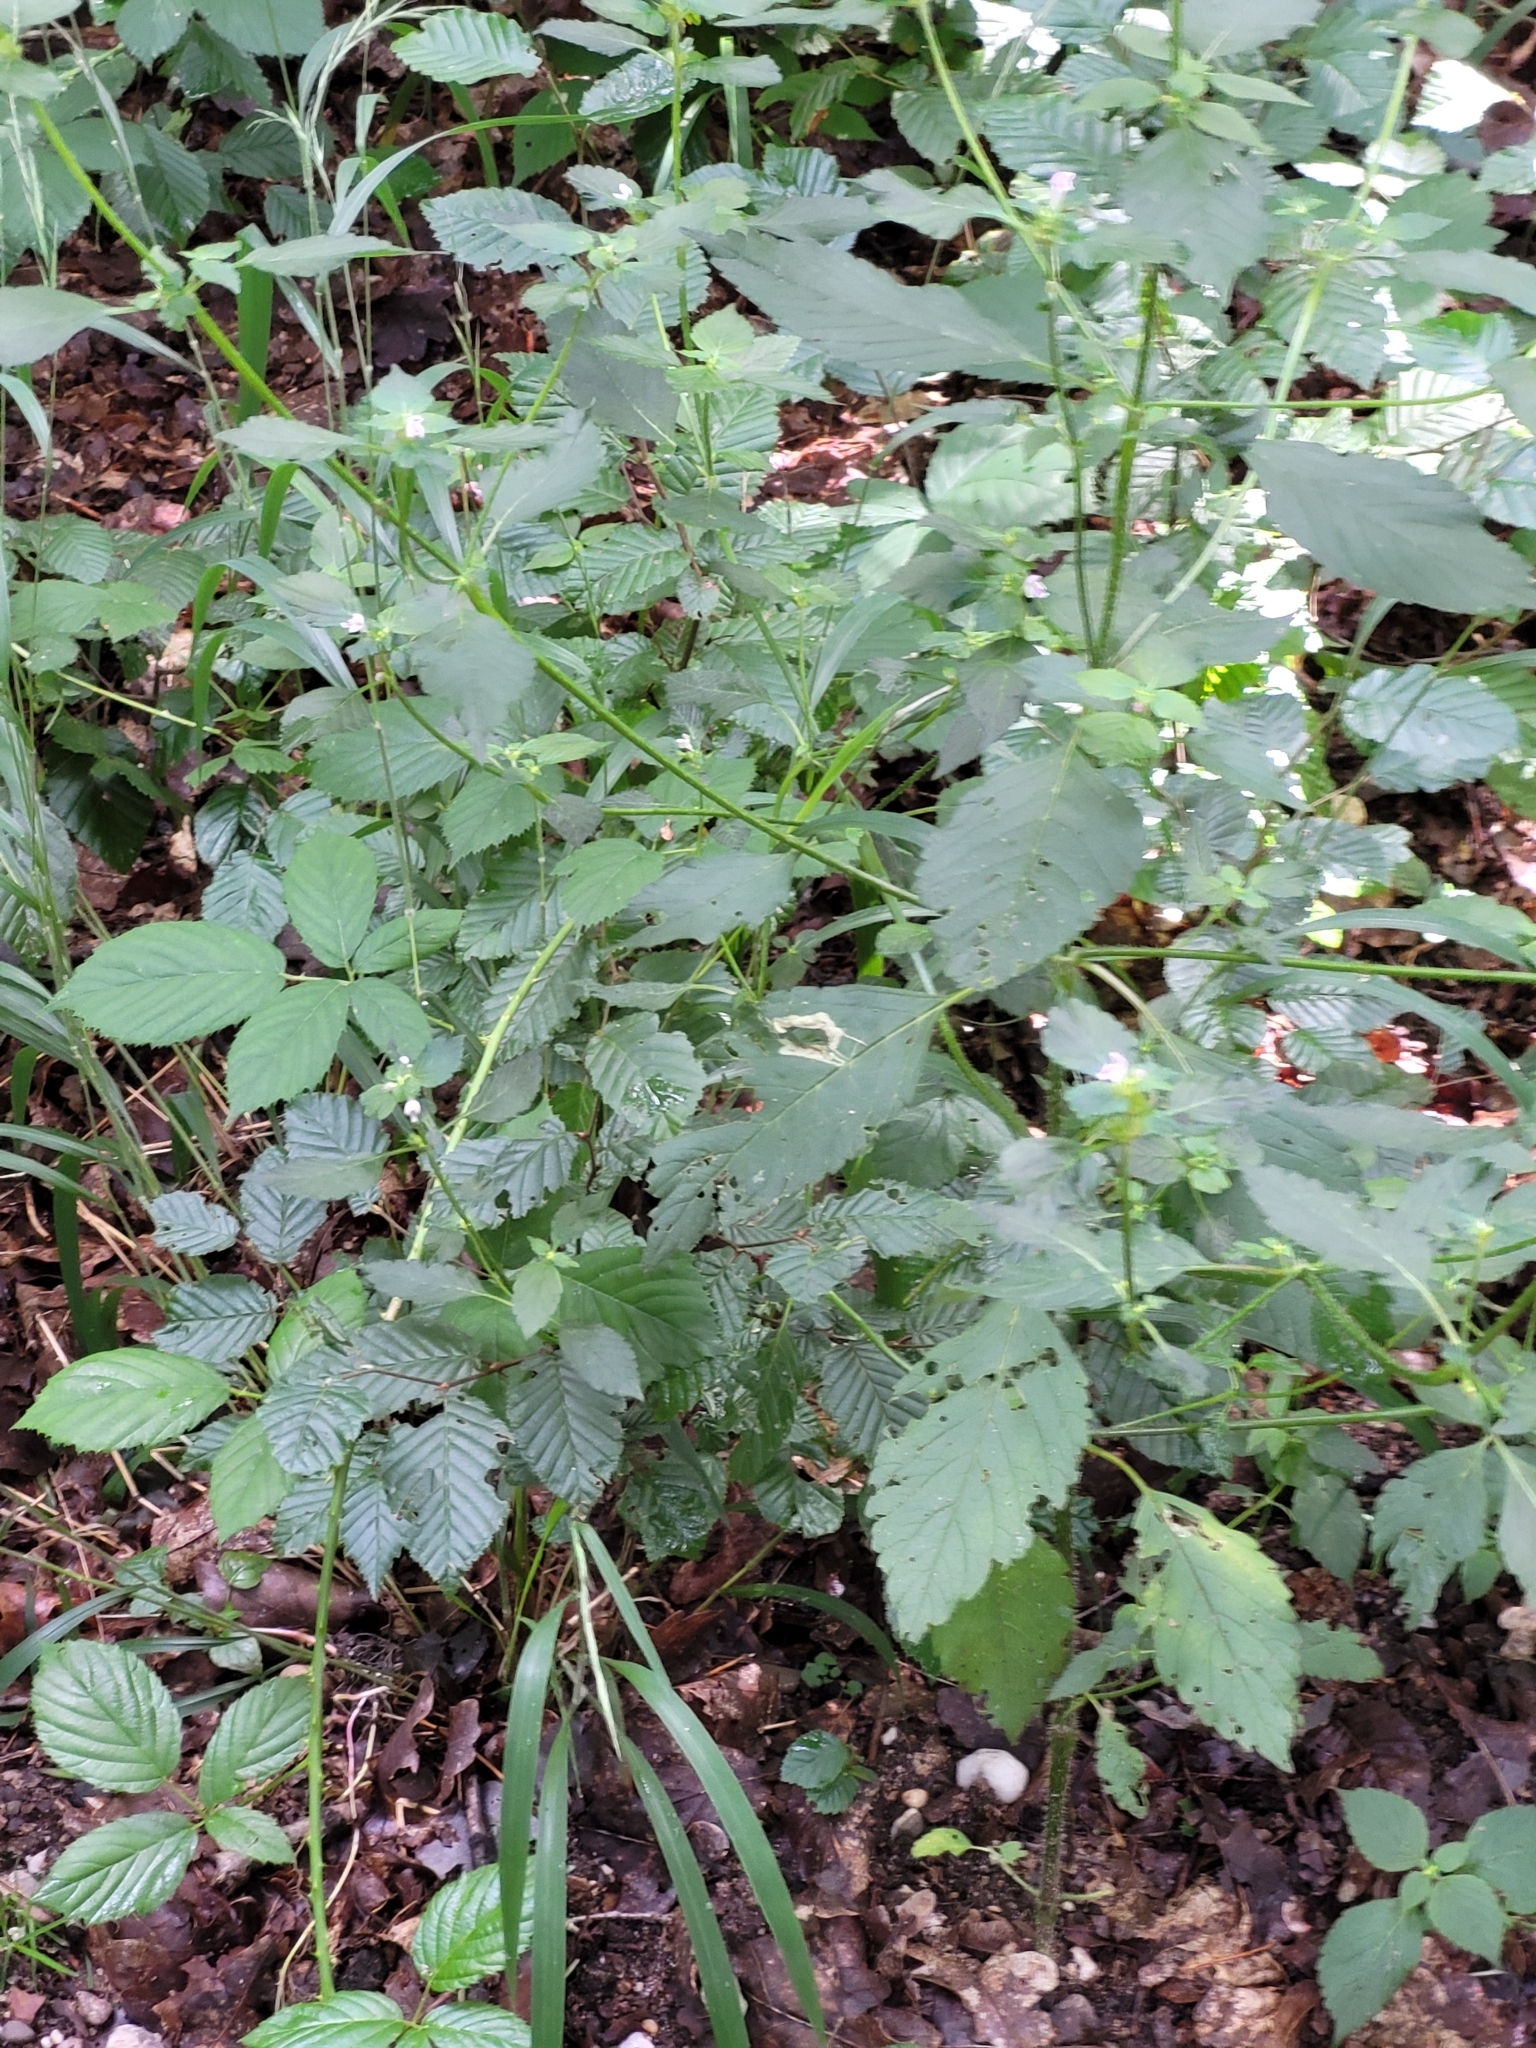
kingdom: Plantae
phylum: Tracheophyta
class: Magnoliopsida
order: Lamiales
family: Lamiaceae
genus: Galeopsis
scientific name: Galeopsis tetrahit
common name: Common hemp-nettle
